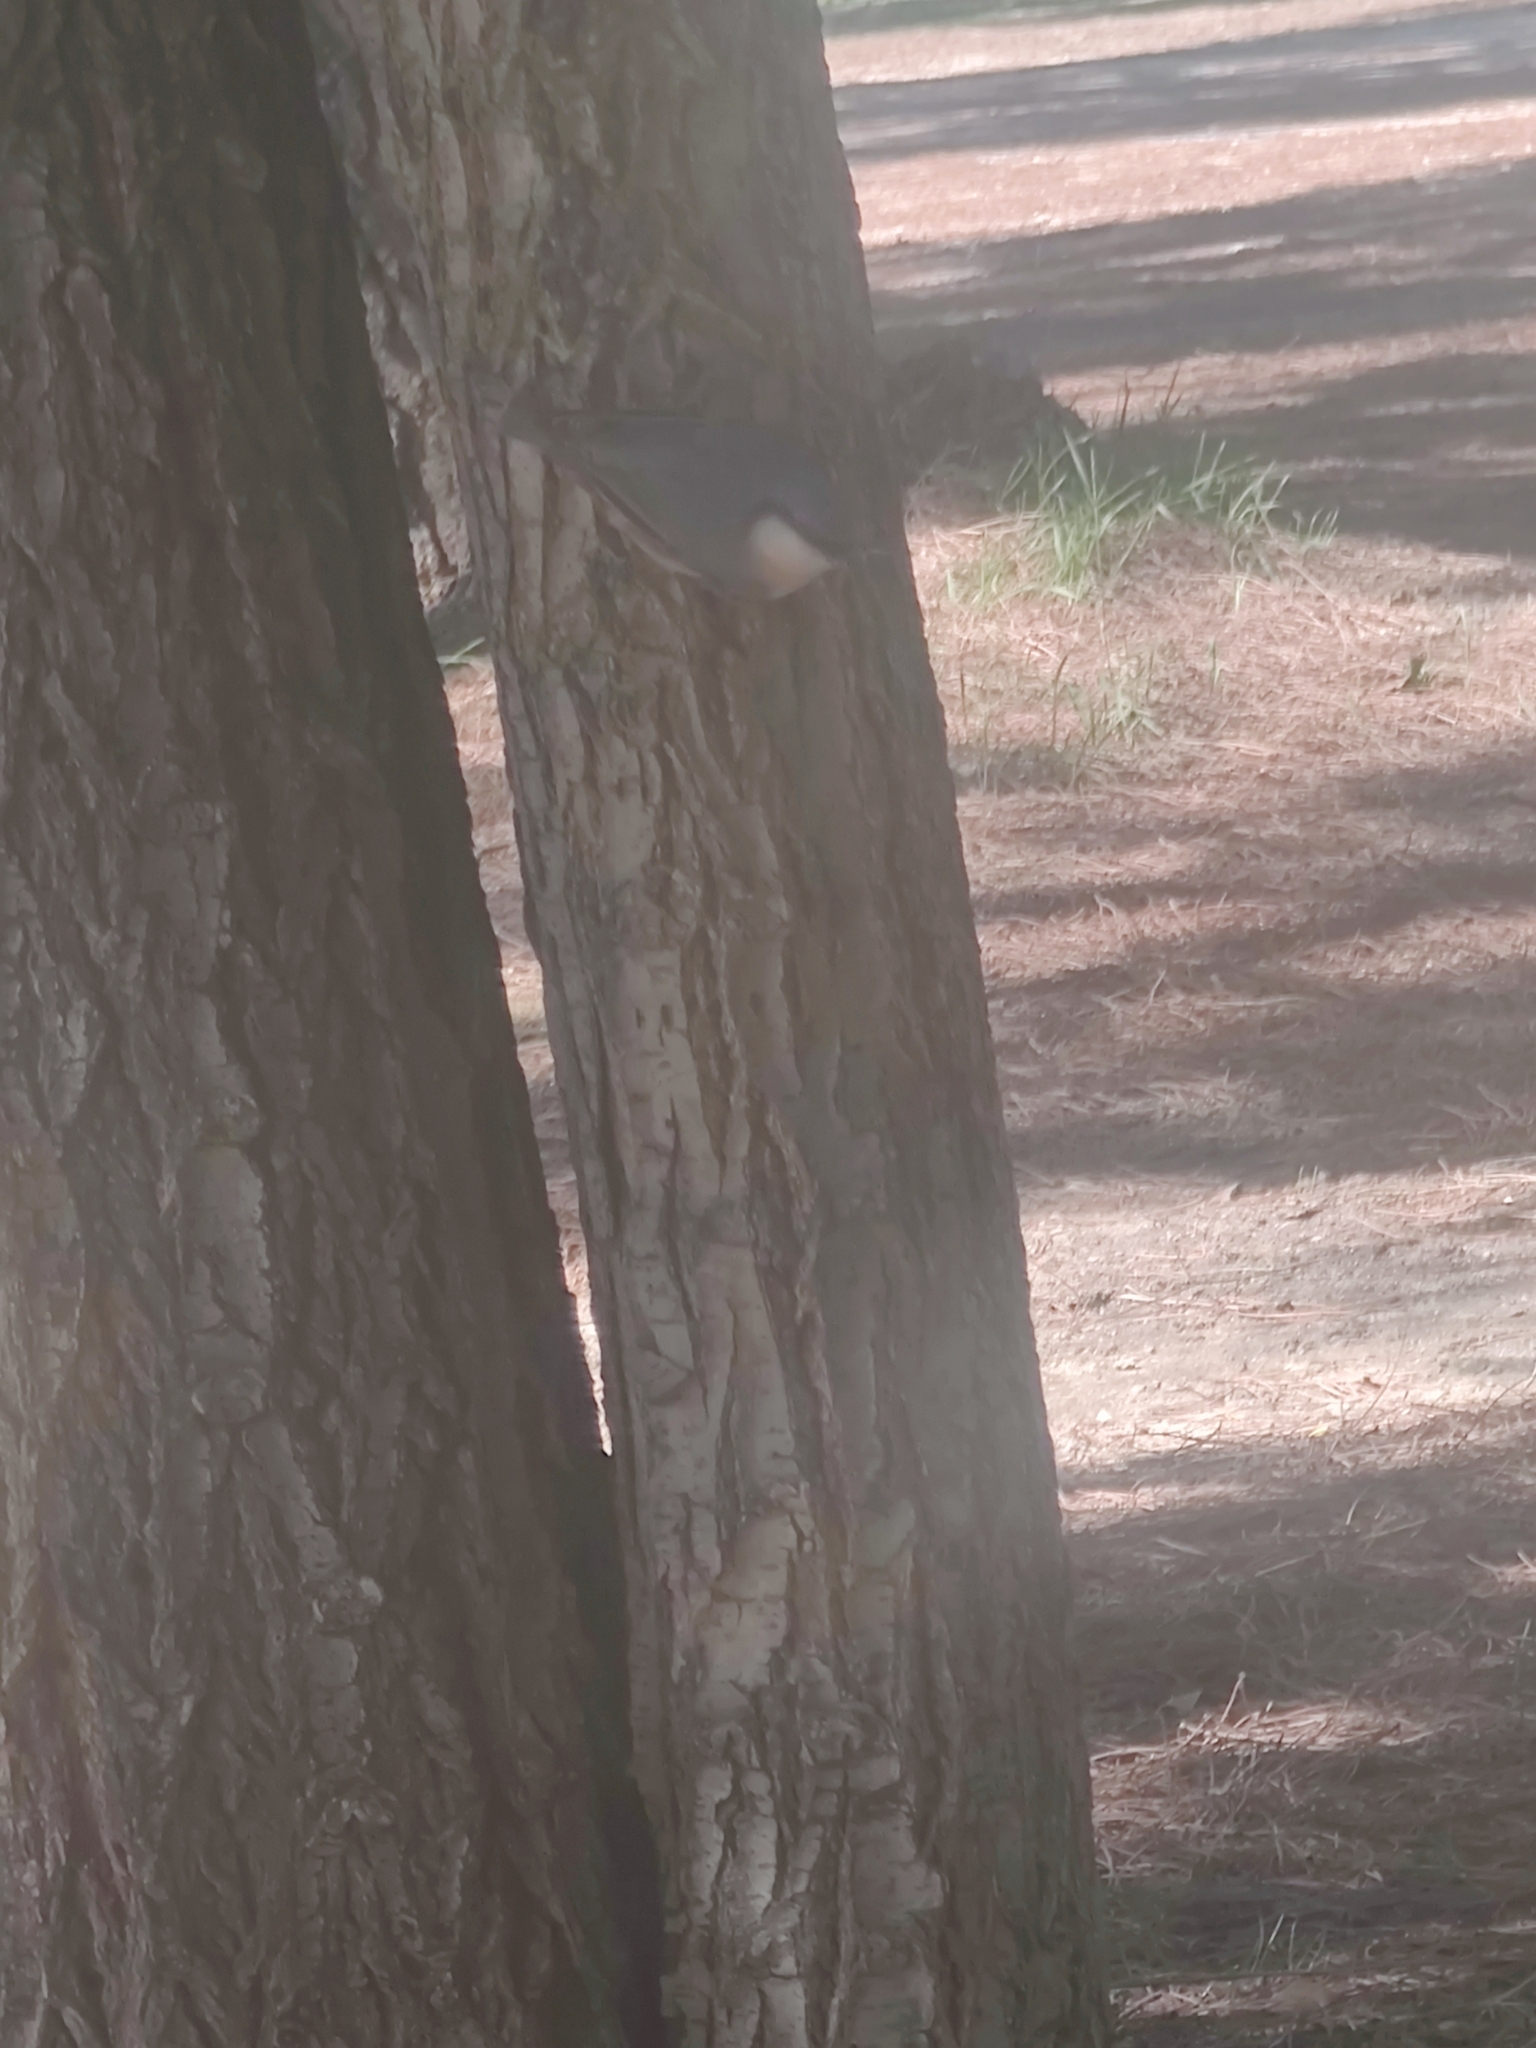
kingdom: Animalia
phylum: Chordata
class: Aves
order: Passeriformes
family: Sittidae
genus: Sitta
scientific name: Sitta europaea
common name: Eurasian nuthatch
